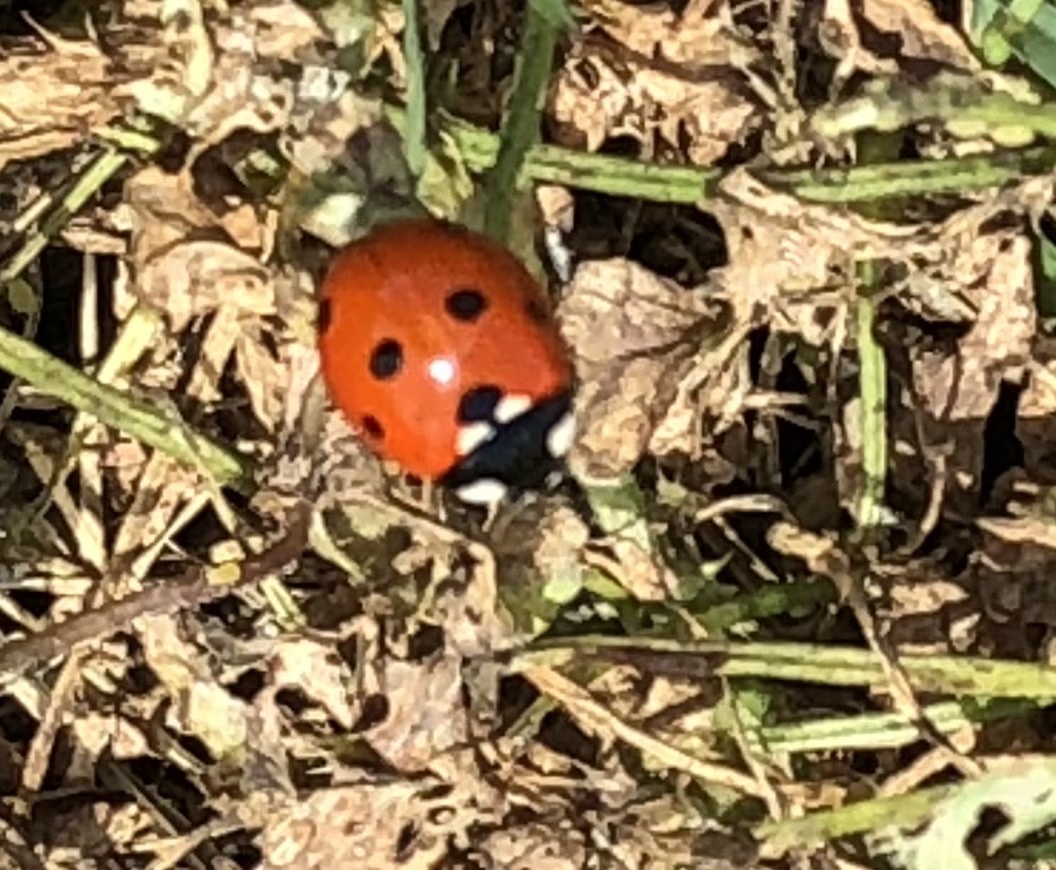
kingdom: Animalia
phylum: Arthropoda
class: Insecta
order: Coleoptera
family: Coccinellidae
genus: Coccinella
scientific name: Coccinella septempunctata
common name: Sevenspotted lady beetle
